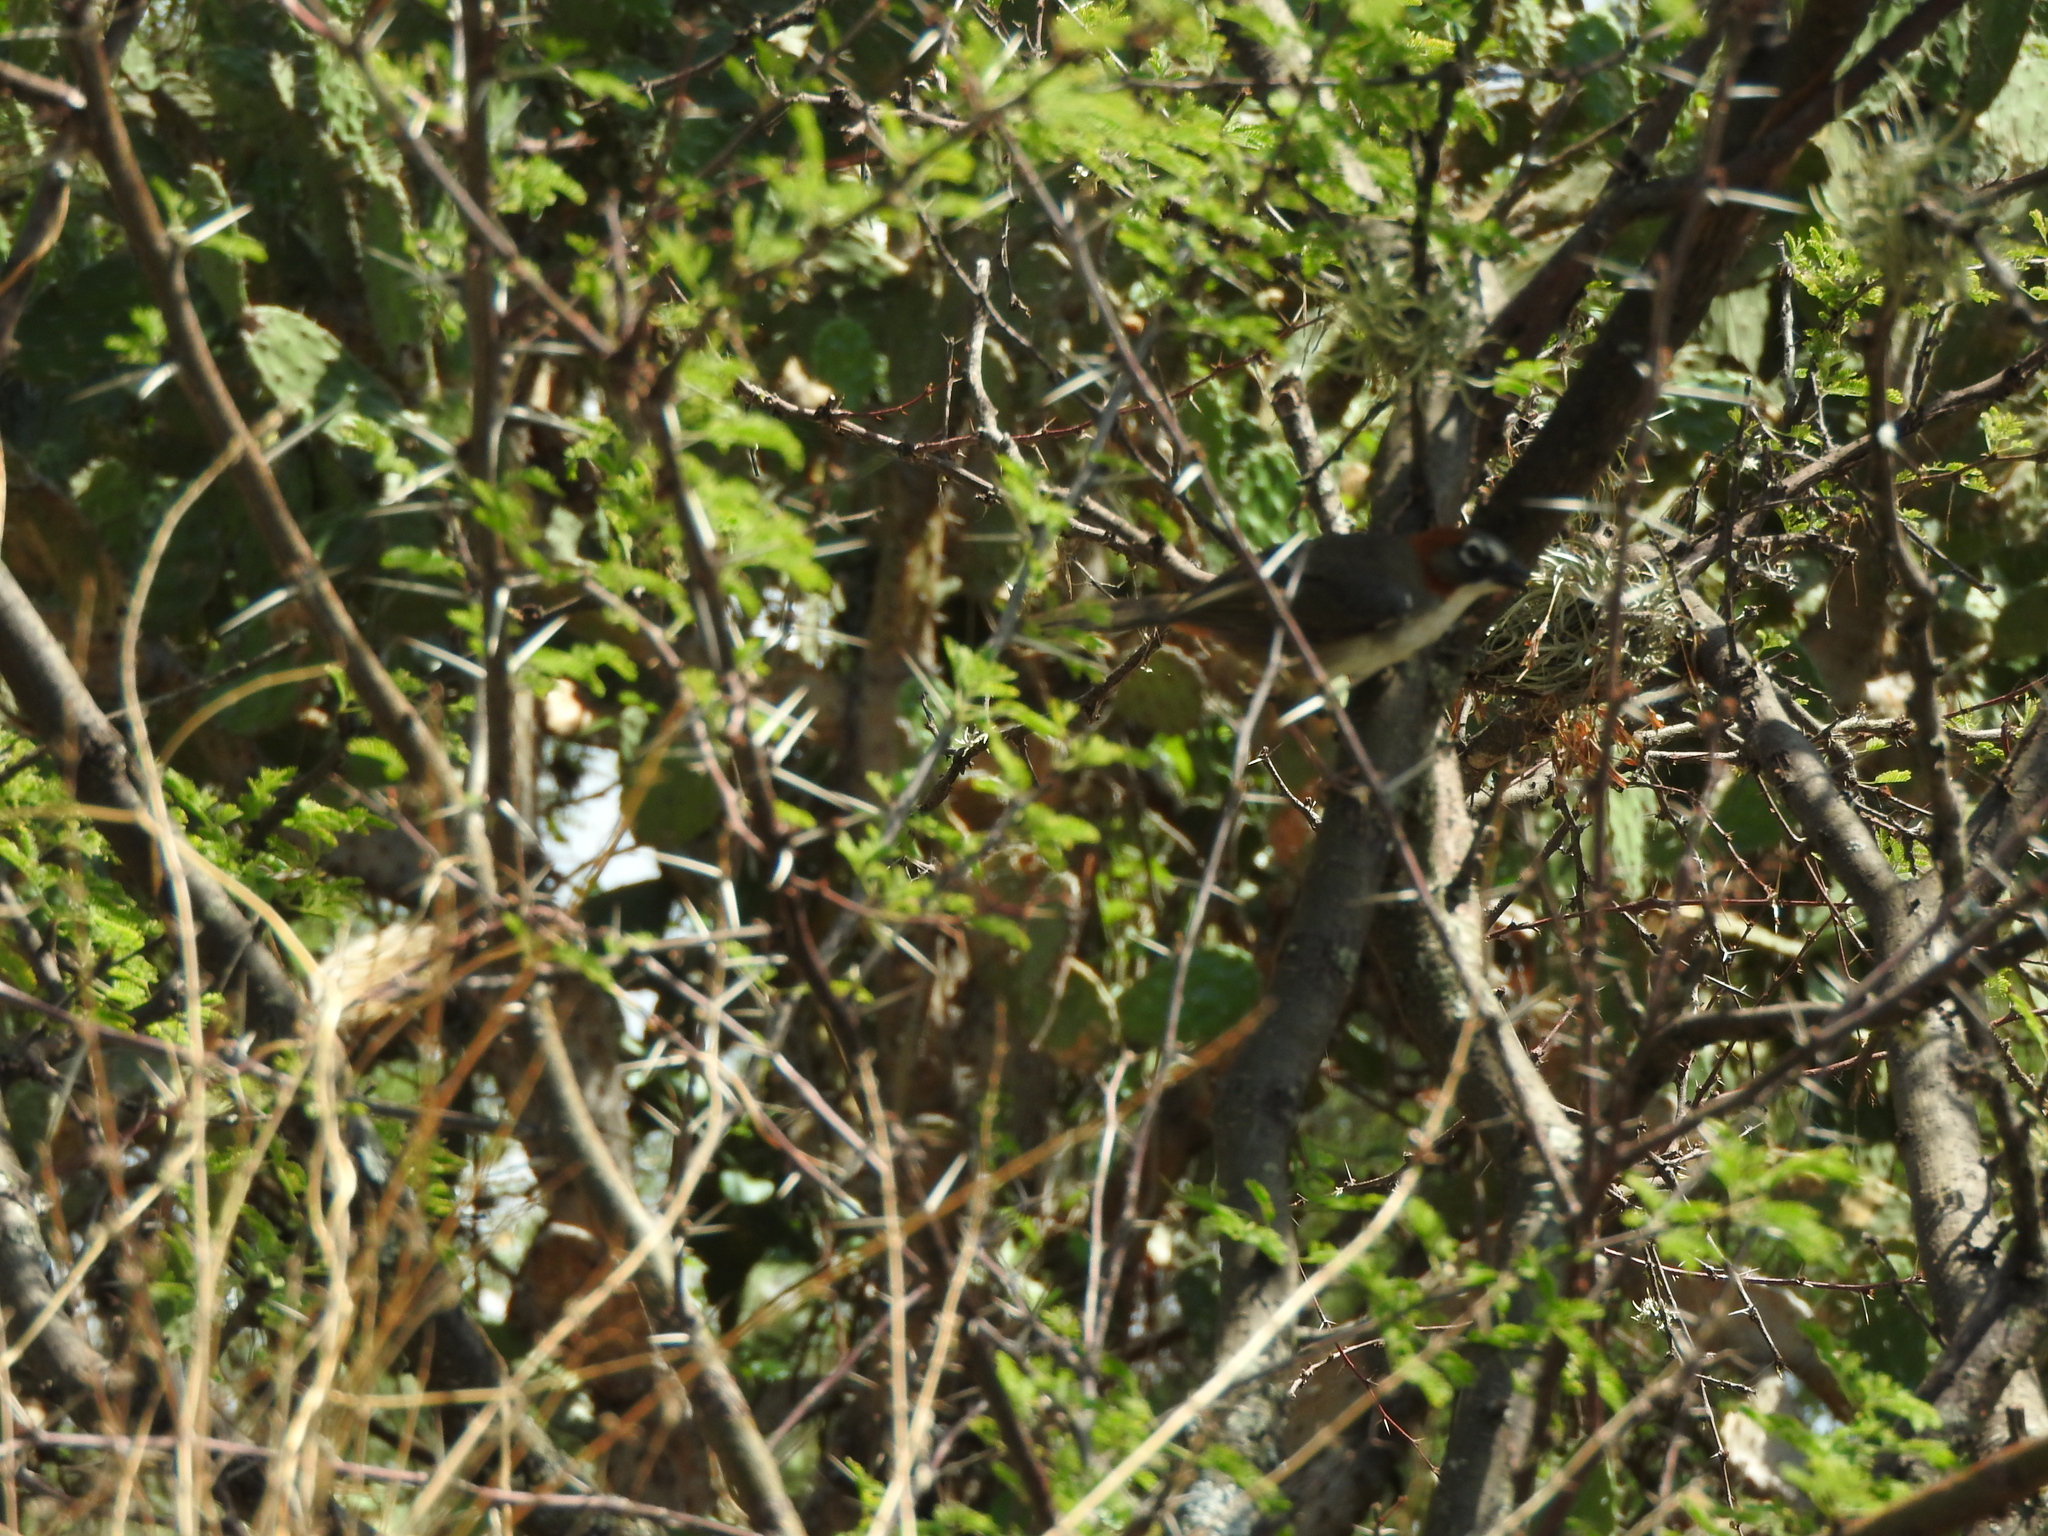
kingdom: Animalia
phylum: Chordata
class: Aves
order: Passeriformes
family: Passerellidae
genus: Melozone
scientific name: Melozone kieneri
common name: Rusty-crowned ground-sparrow
